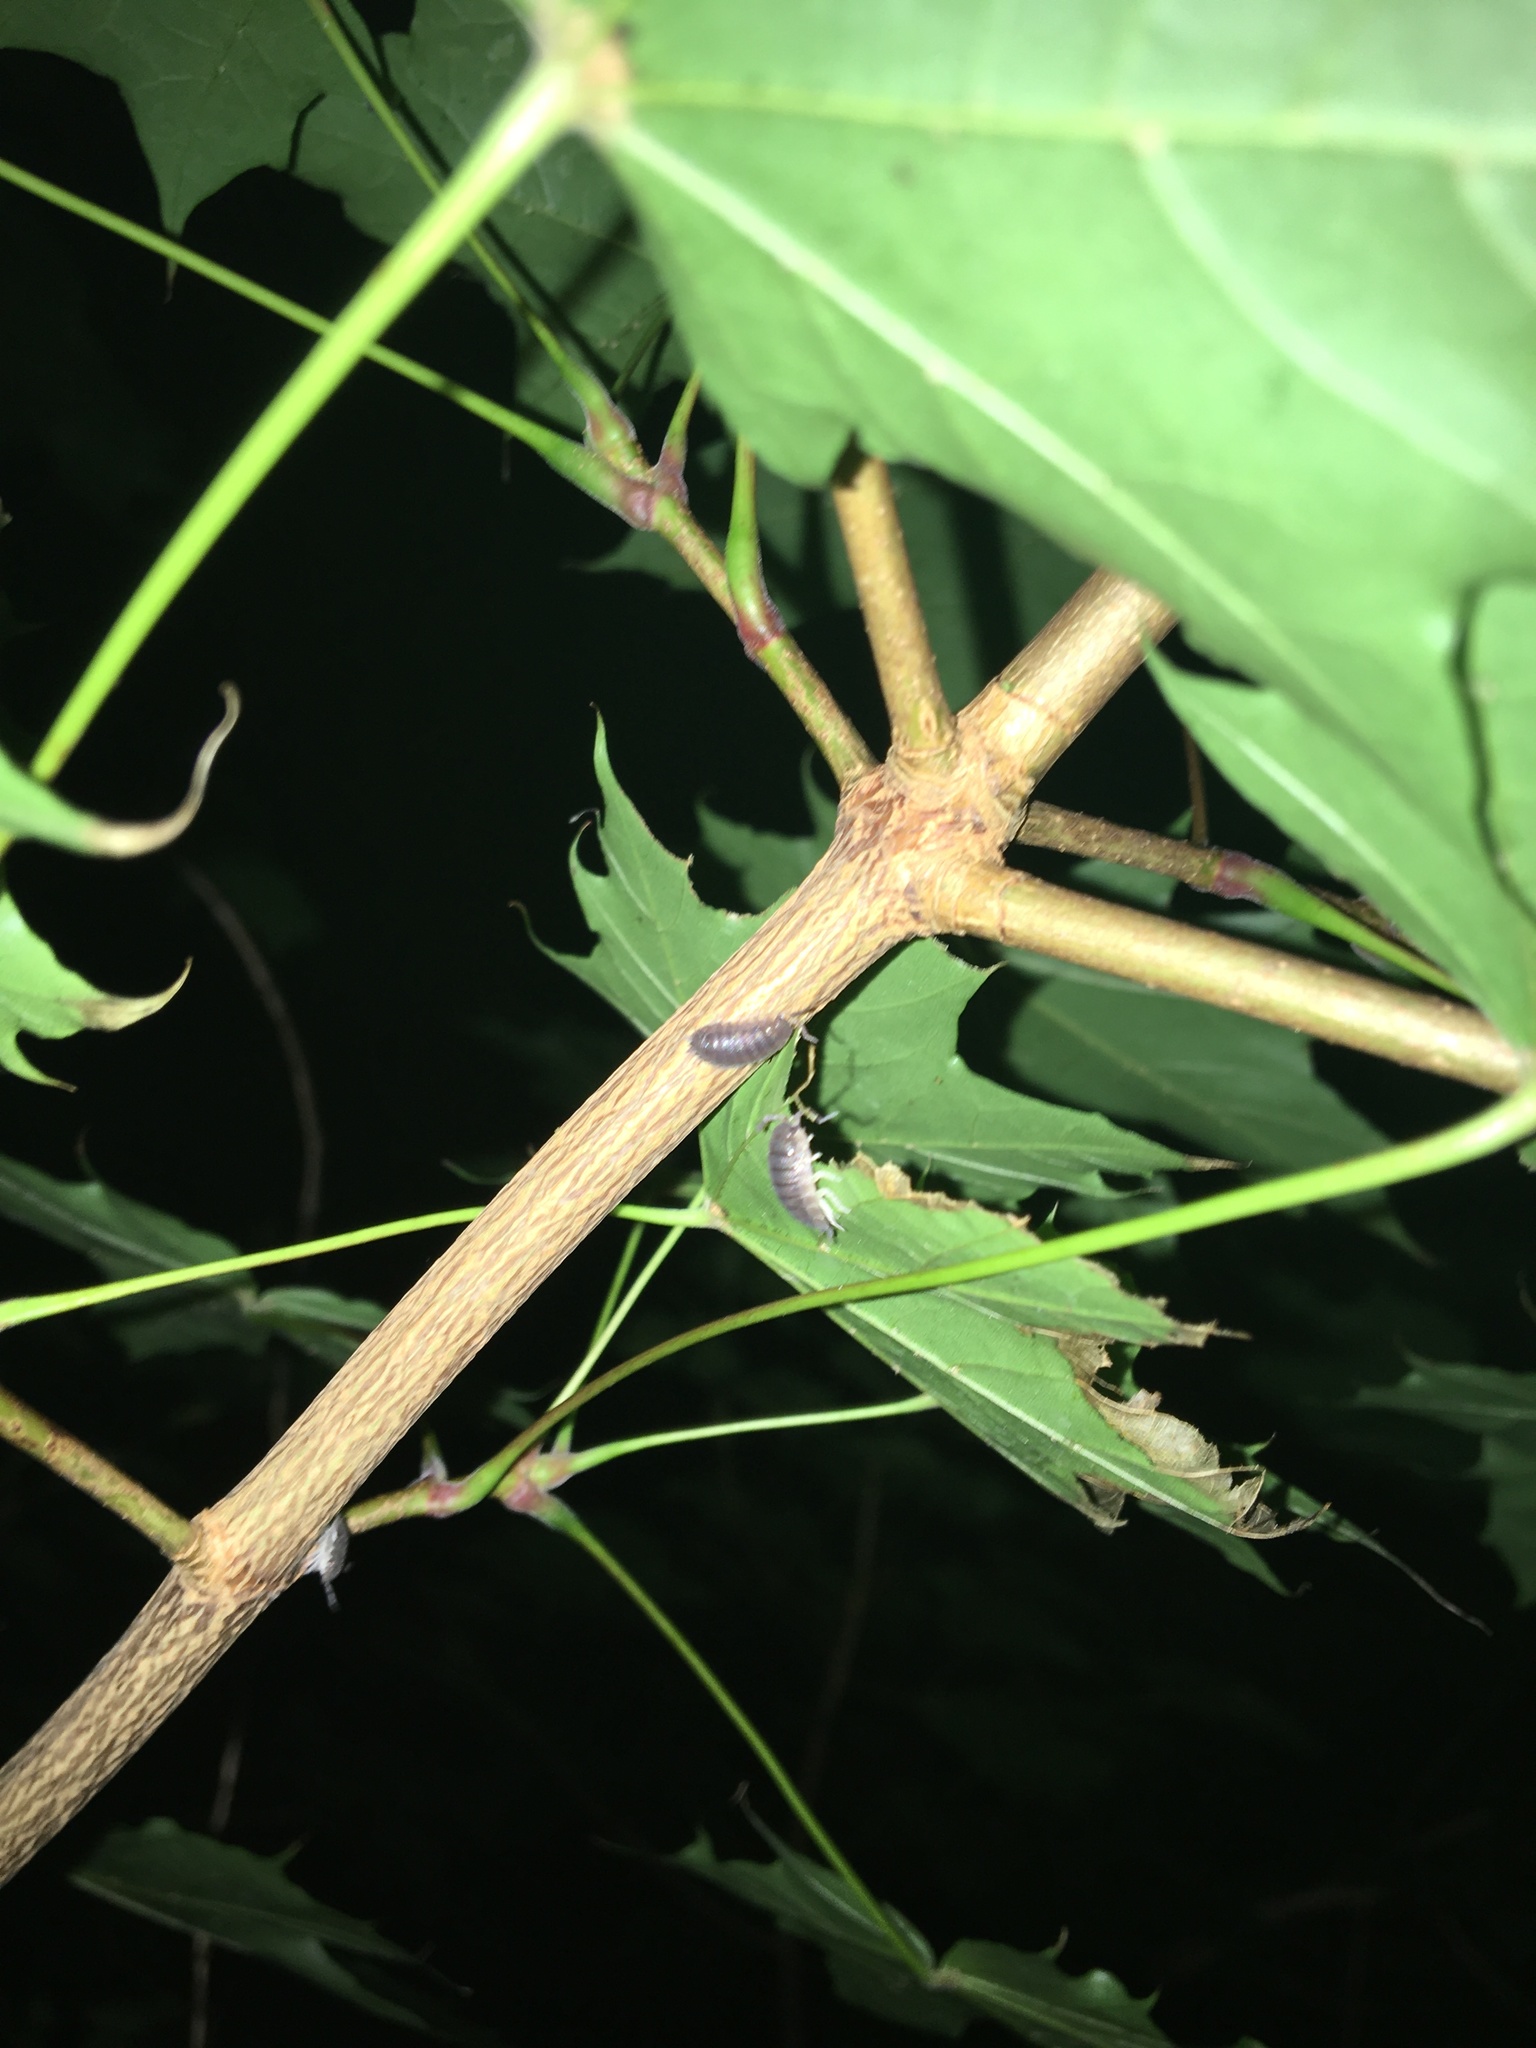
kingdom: Animalia
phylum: Arthropoda
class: Malacostraca
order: Isopoda
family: Porcellionidae
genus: Porcellio
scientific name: Porcellio scaber
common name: Common rough woodlouse
